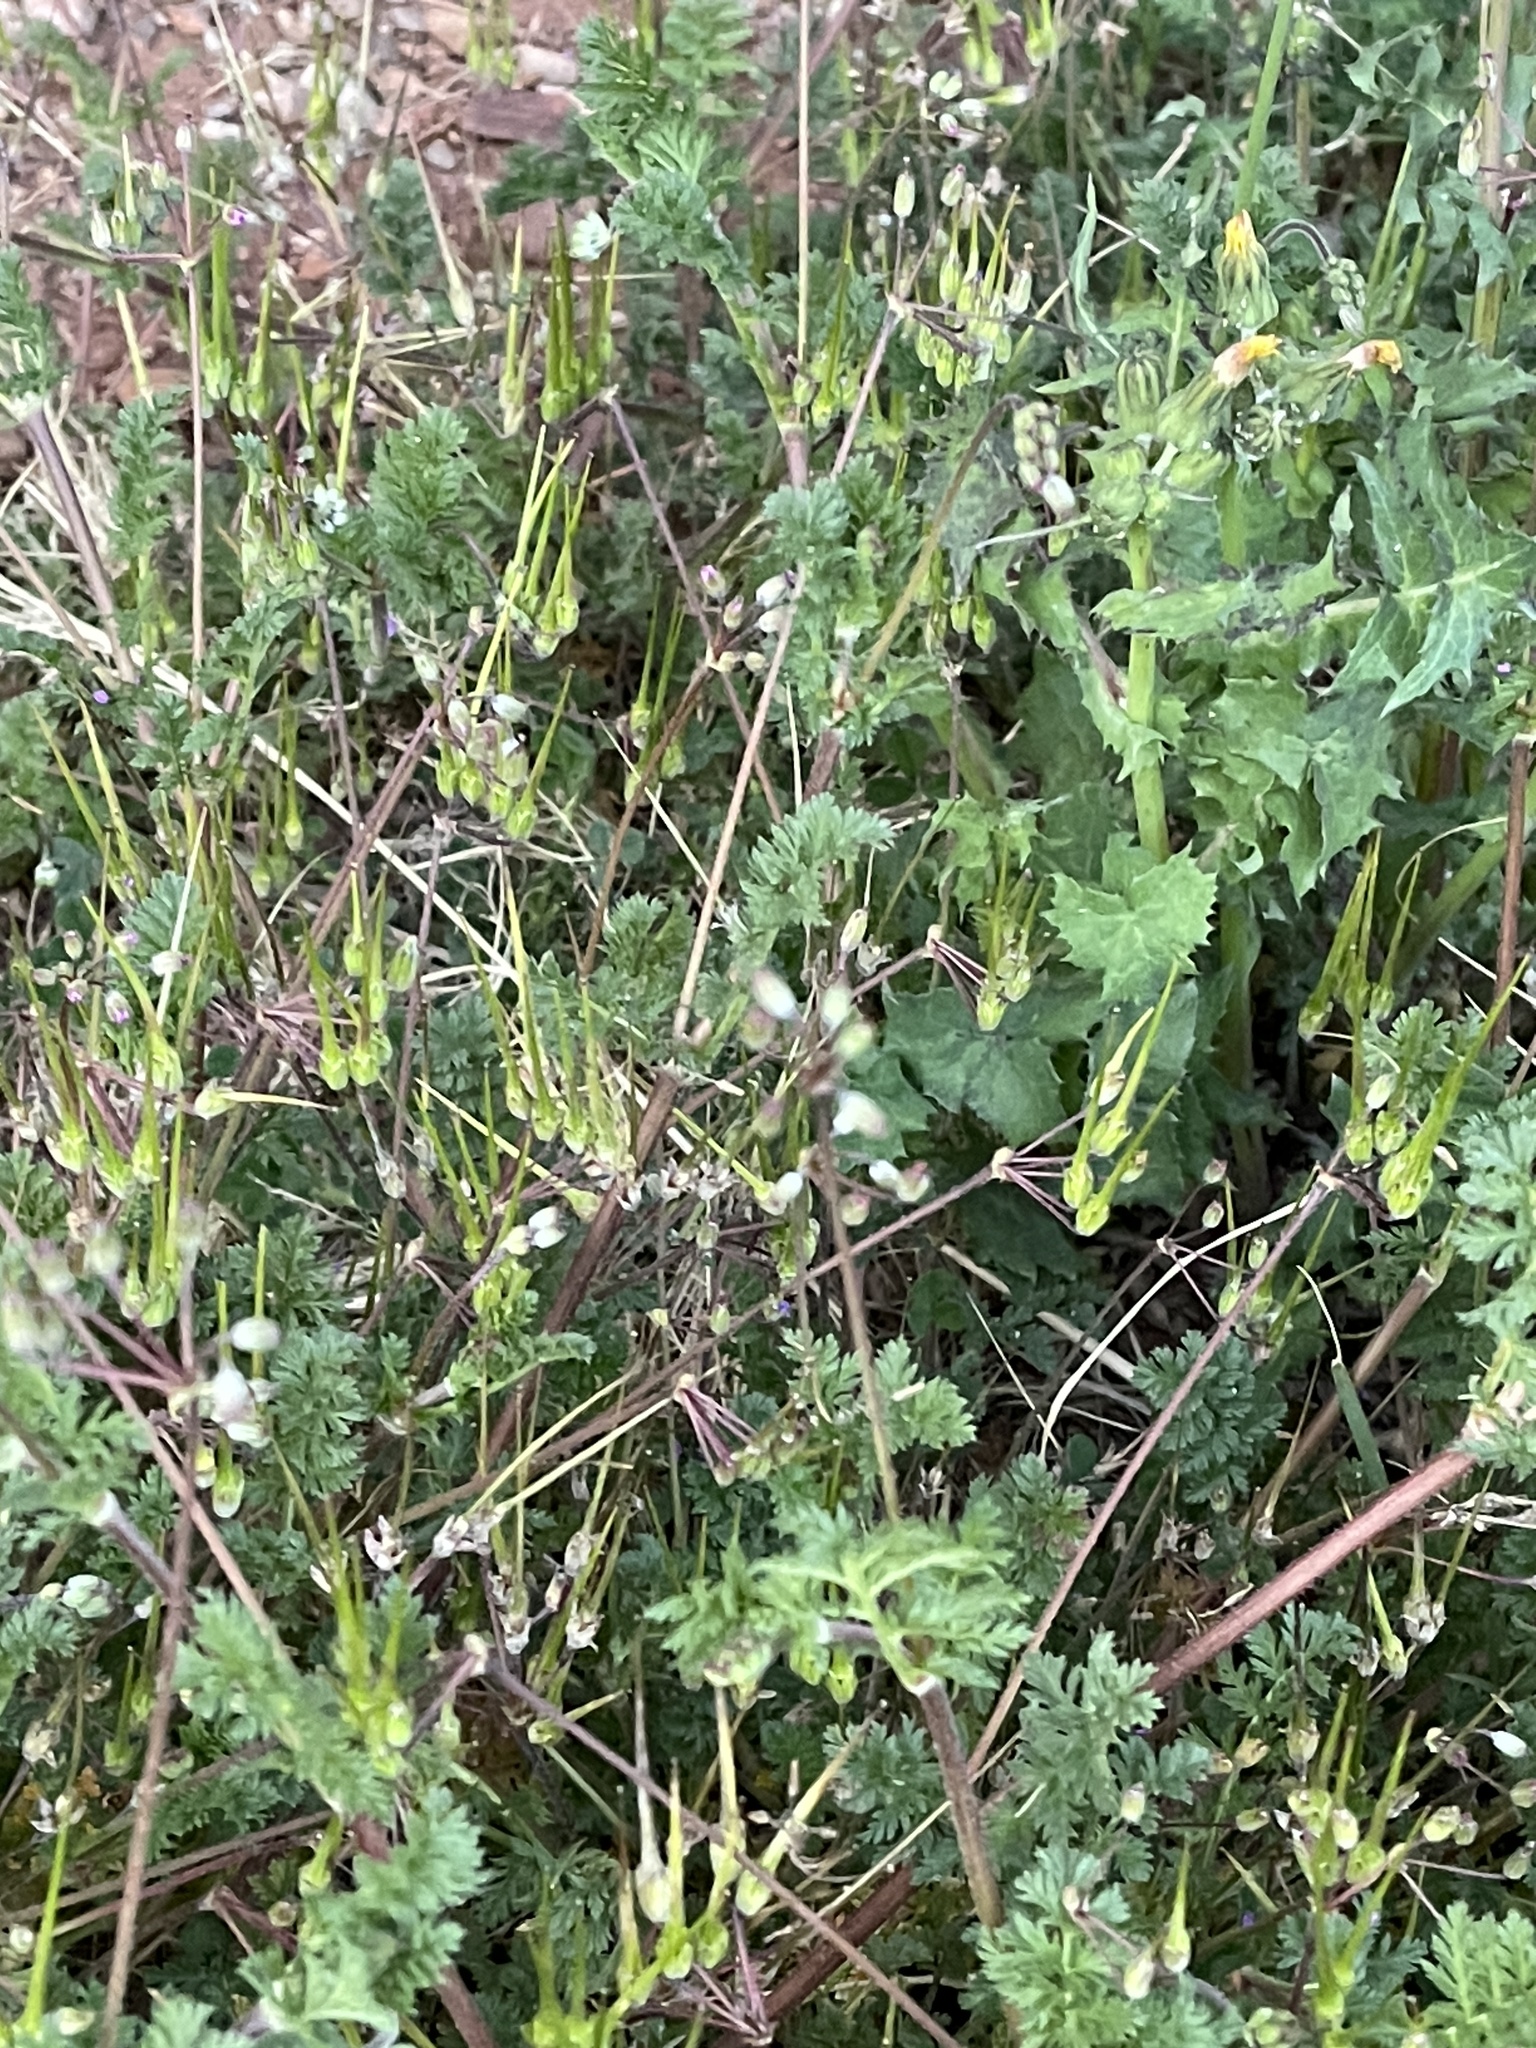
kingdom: Plantae
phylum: Tracheophyta
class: Magnoliopsida
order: Geraniales
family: Geraniaceae
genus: Erodium
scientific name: Erodium cicutarium
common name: Common stork's-bill
